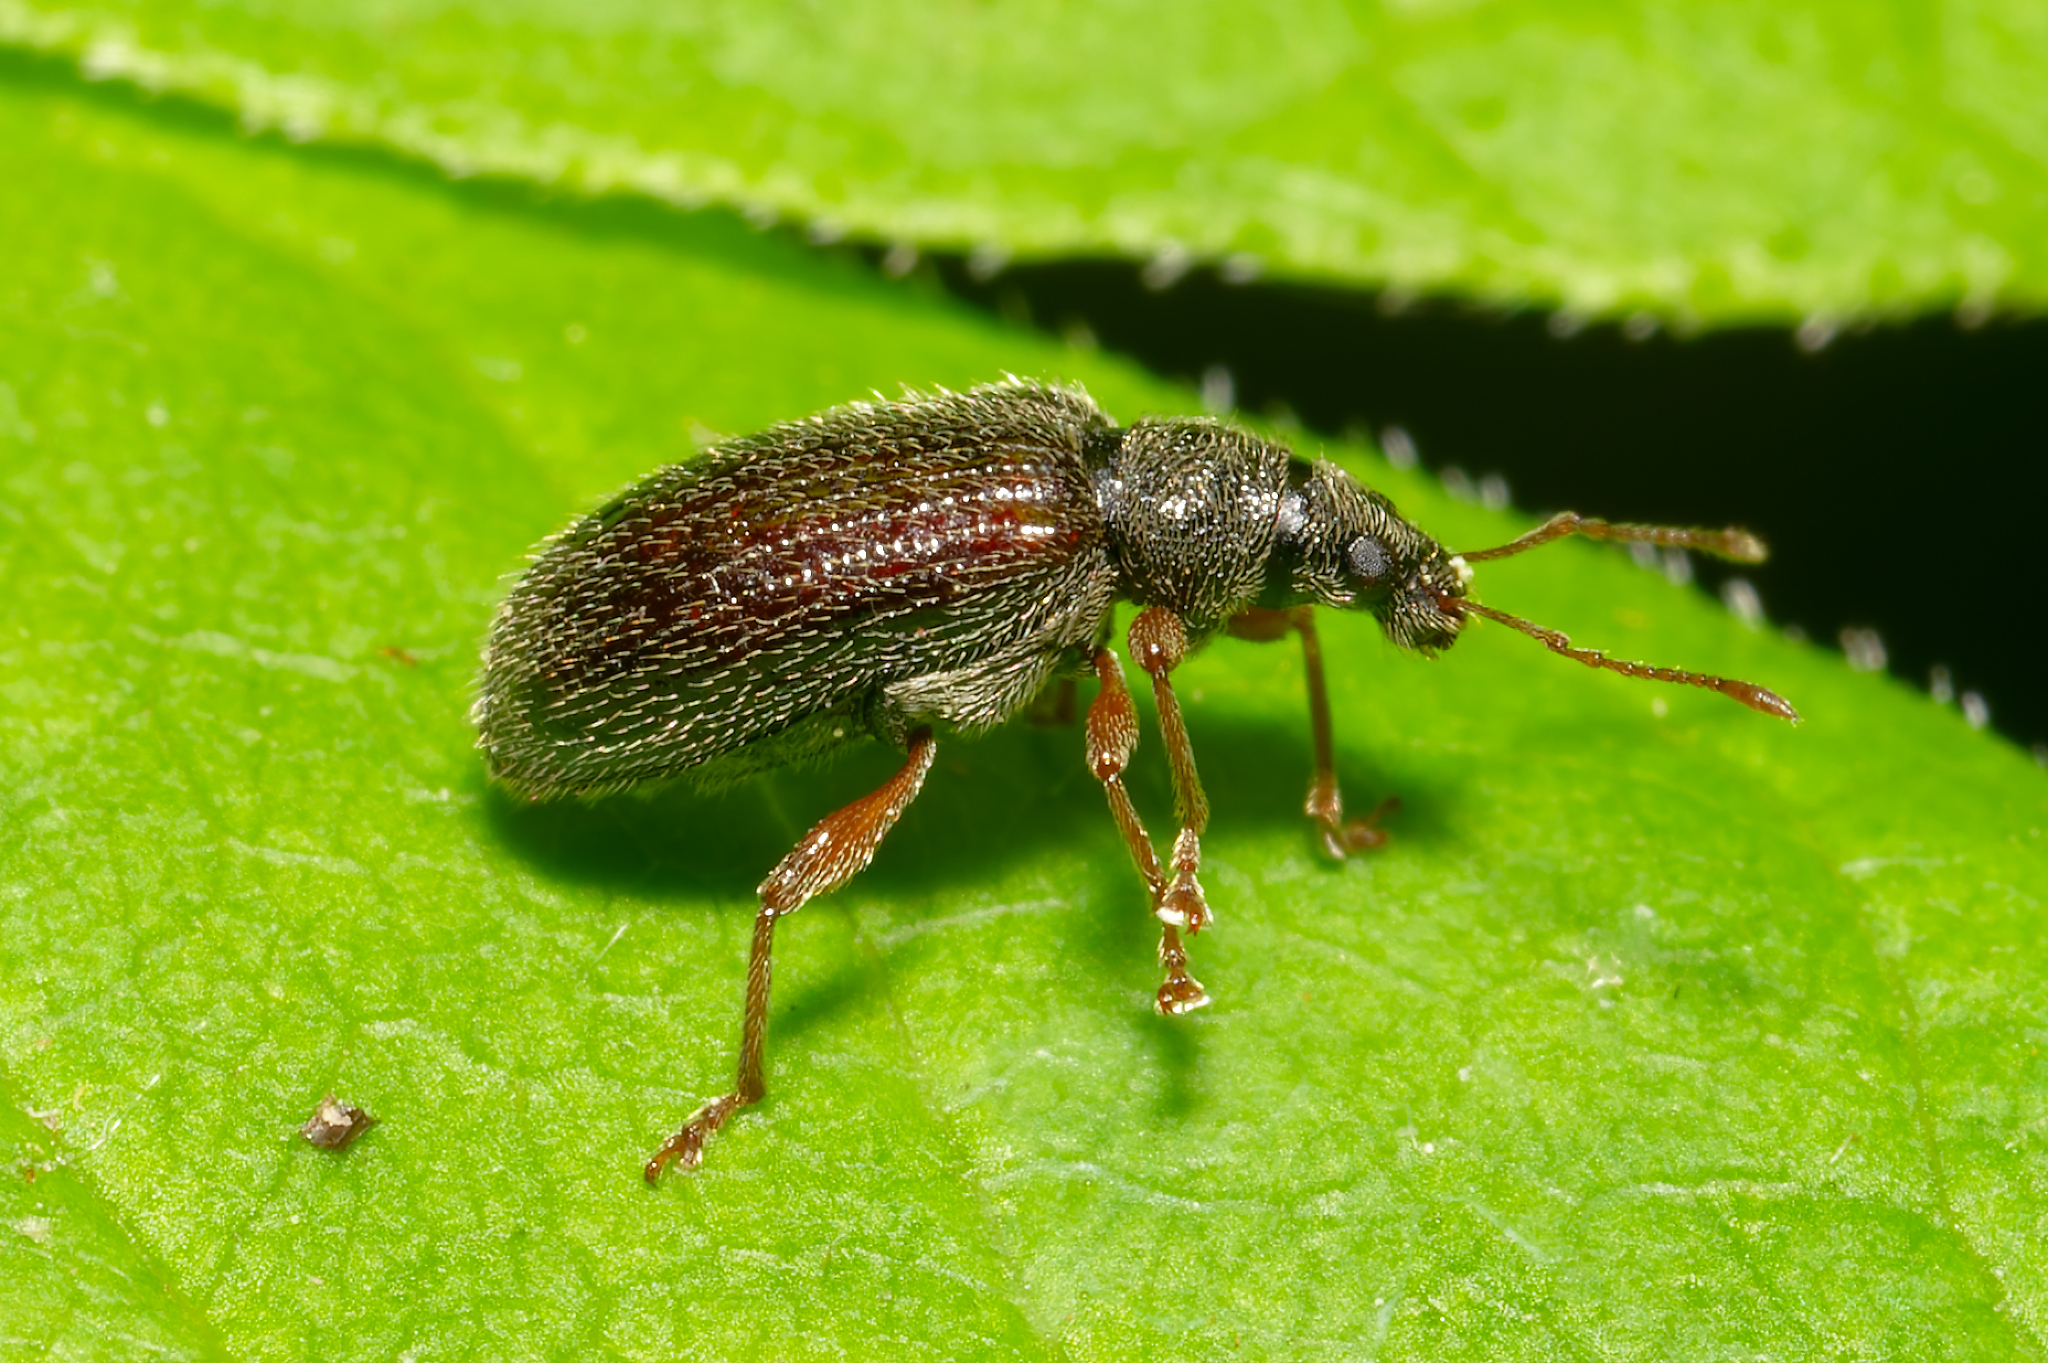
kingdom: Animalia
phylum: Arthropoda
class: Insecta
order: Coleoptera
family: Curculionidae
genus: Phyllobius
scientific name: Phyllobius oblongus
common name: Brown leaf weevil
